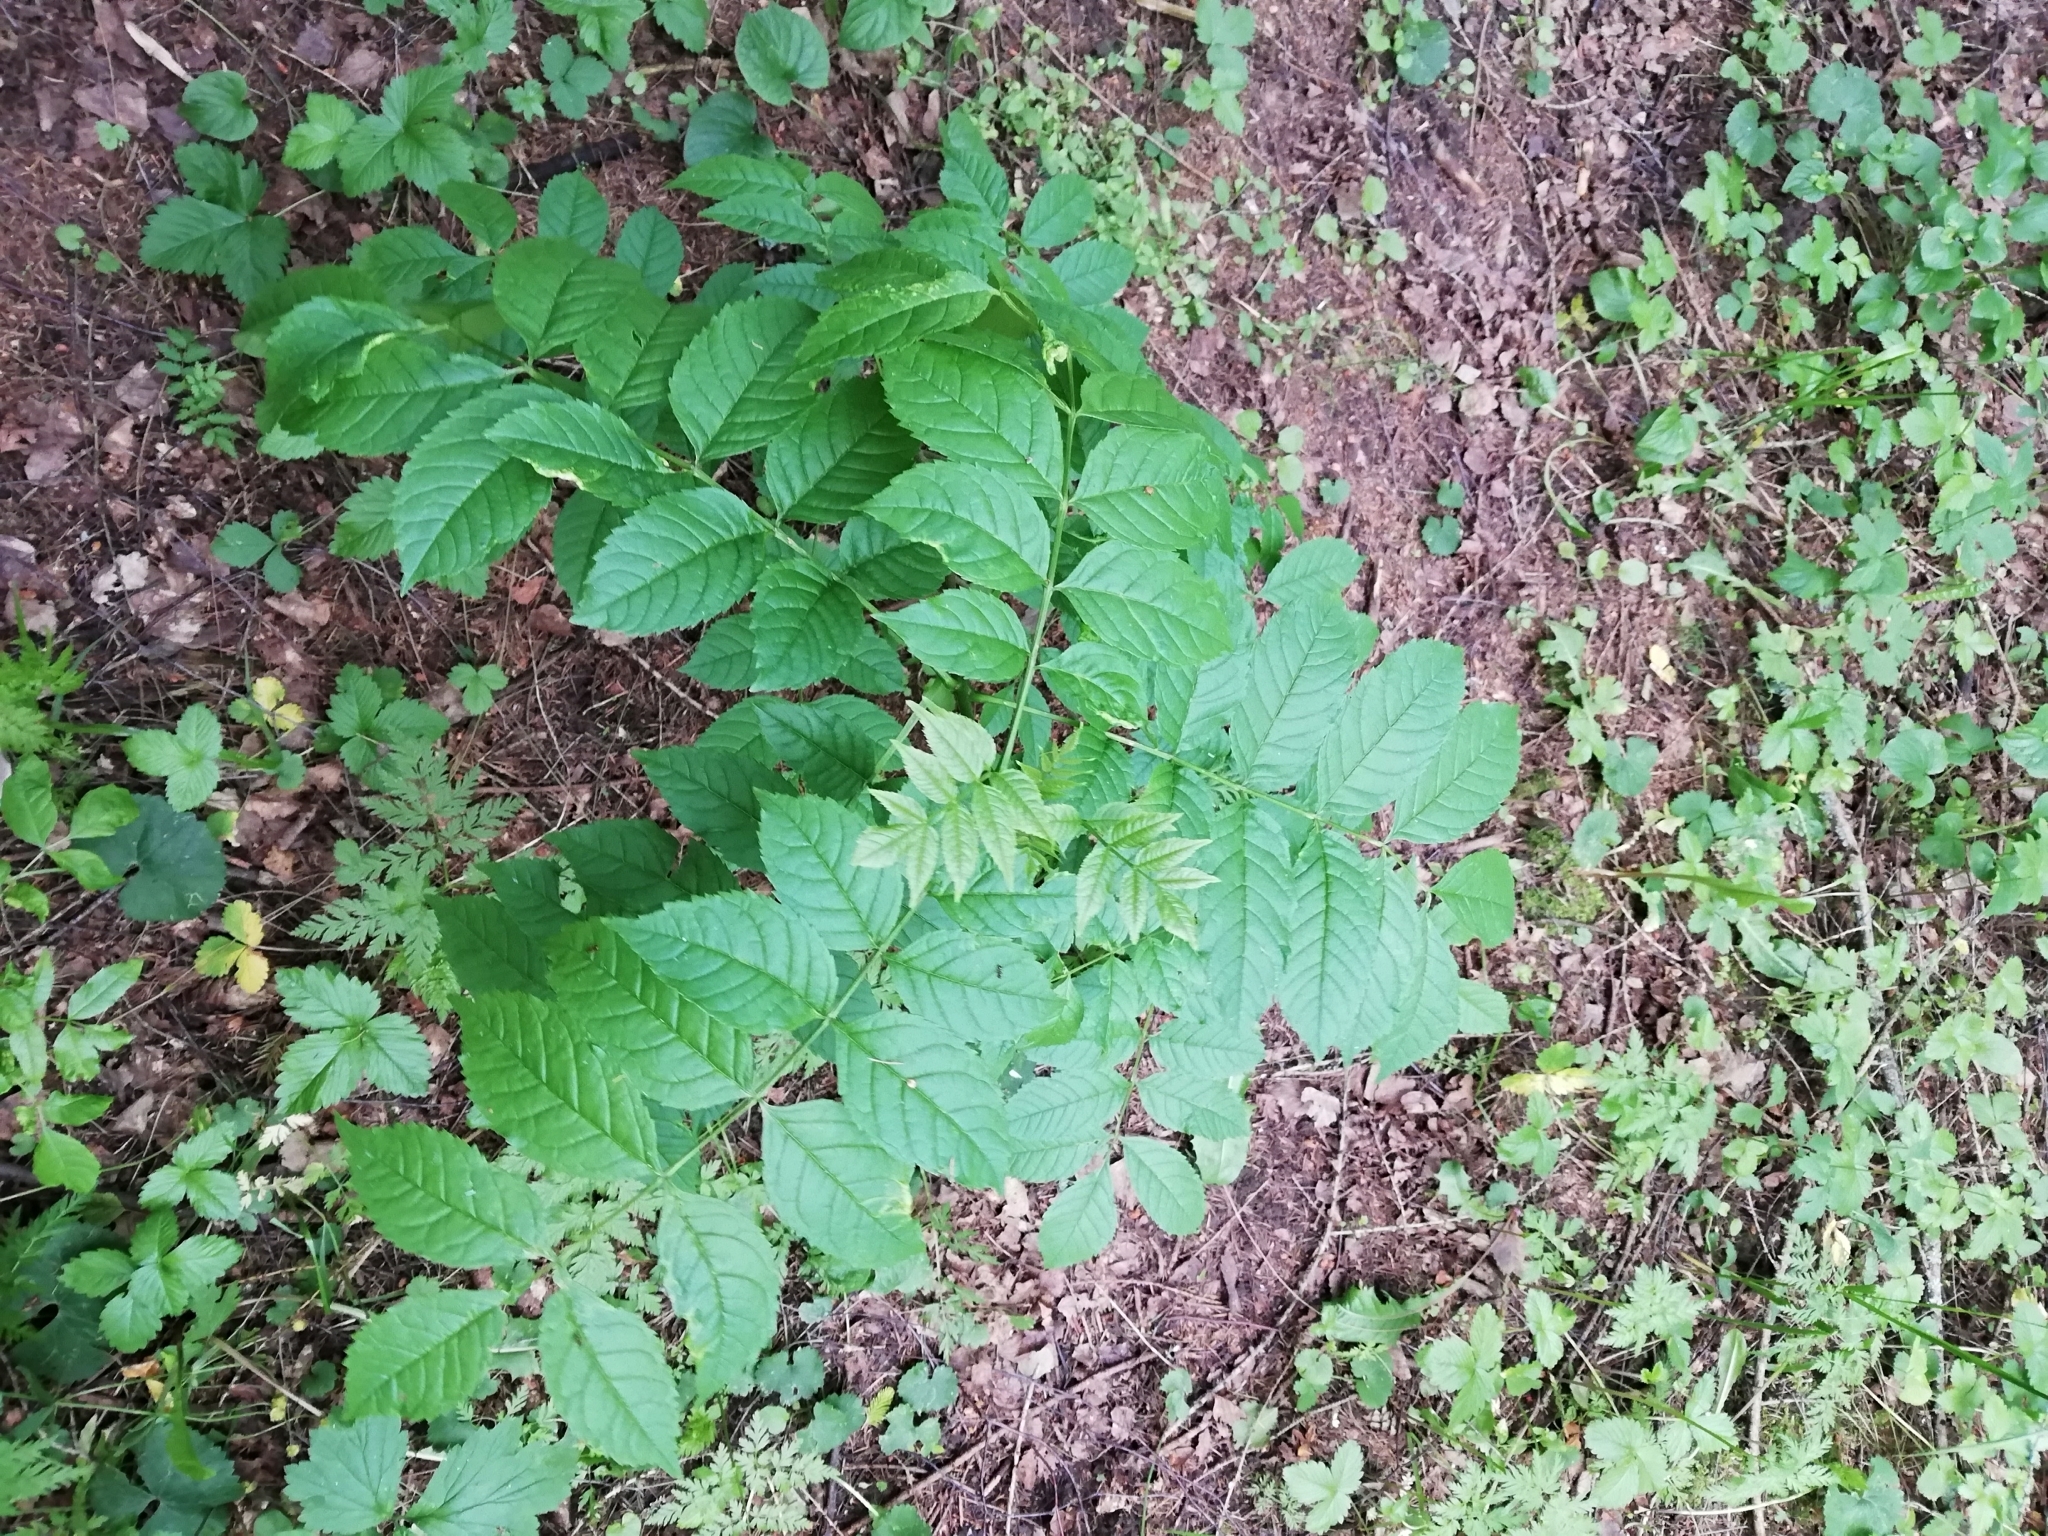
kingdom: Plantae
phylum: Tracheophyta
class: Magnoliopsida
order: Lamiales
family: Oleaceae
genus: Fraxinus
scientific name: Fraxinus excelsior
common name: European ash
